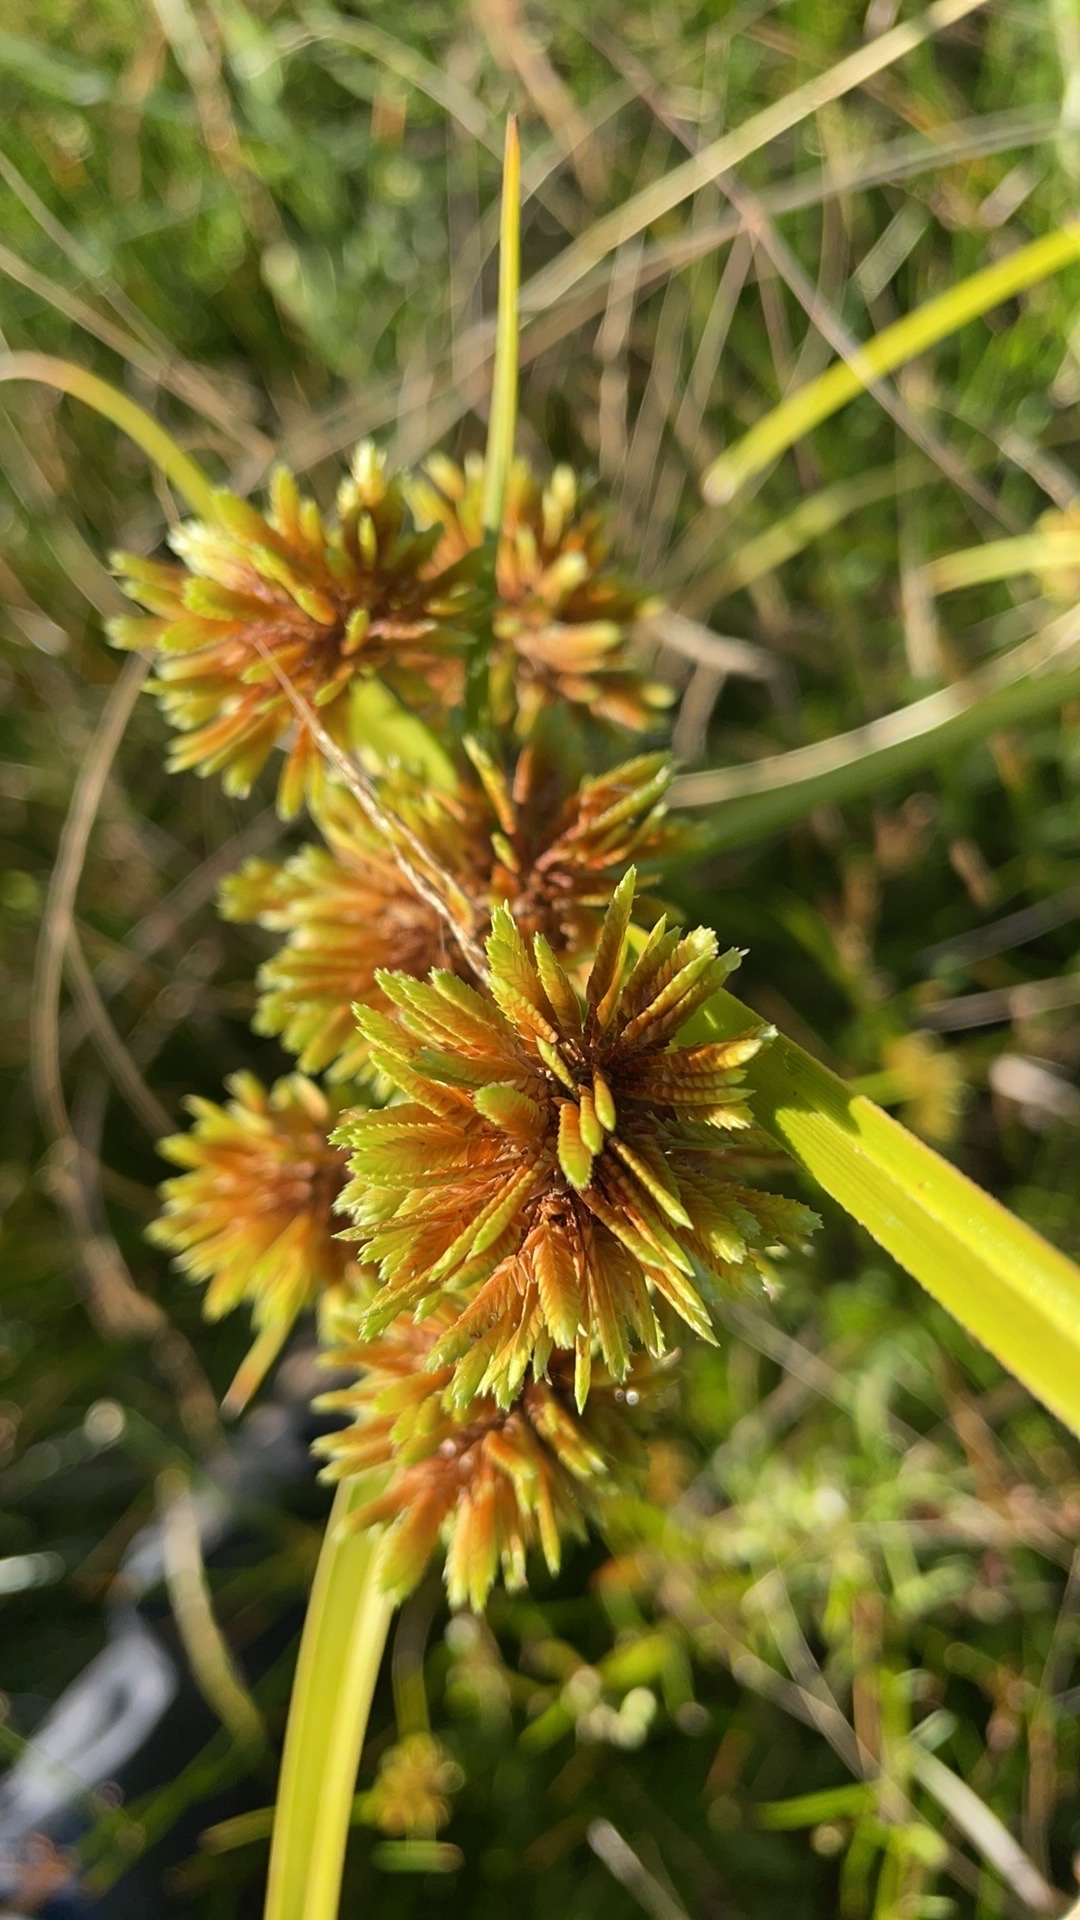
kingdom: Plantae
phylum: Tracheophyta
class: Liliopsida
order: Poales
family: Cyperaceae
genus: Cyperus
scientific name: Cyperus eragrostis
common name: Tall flatsedge
